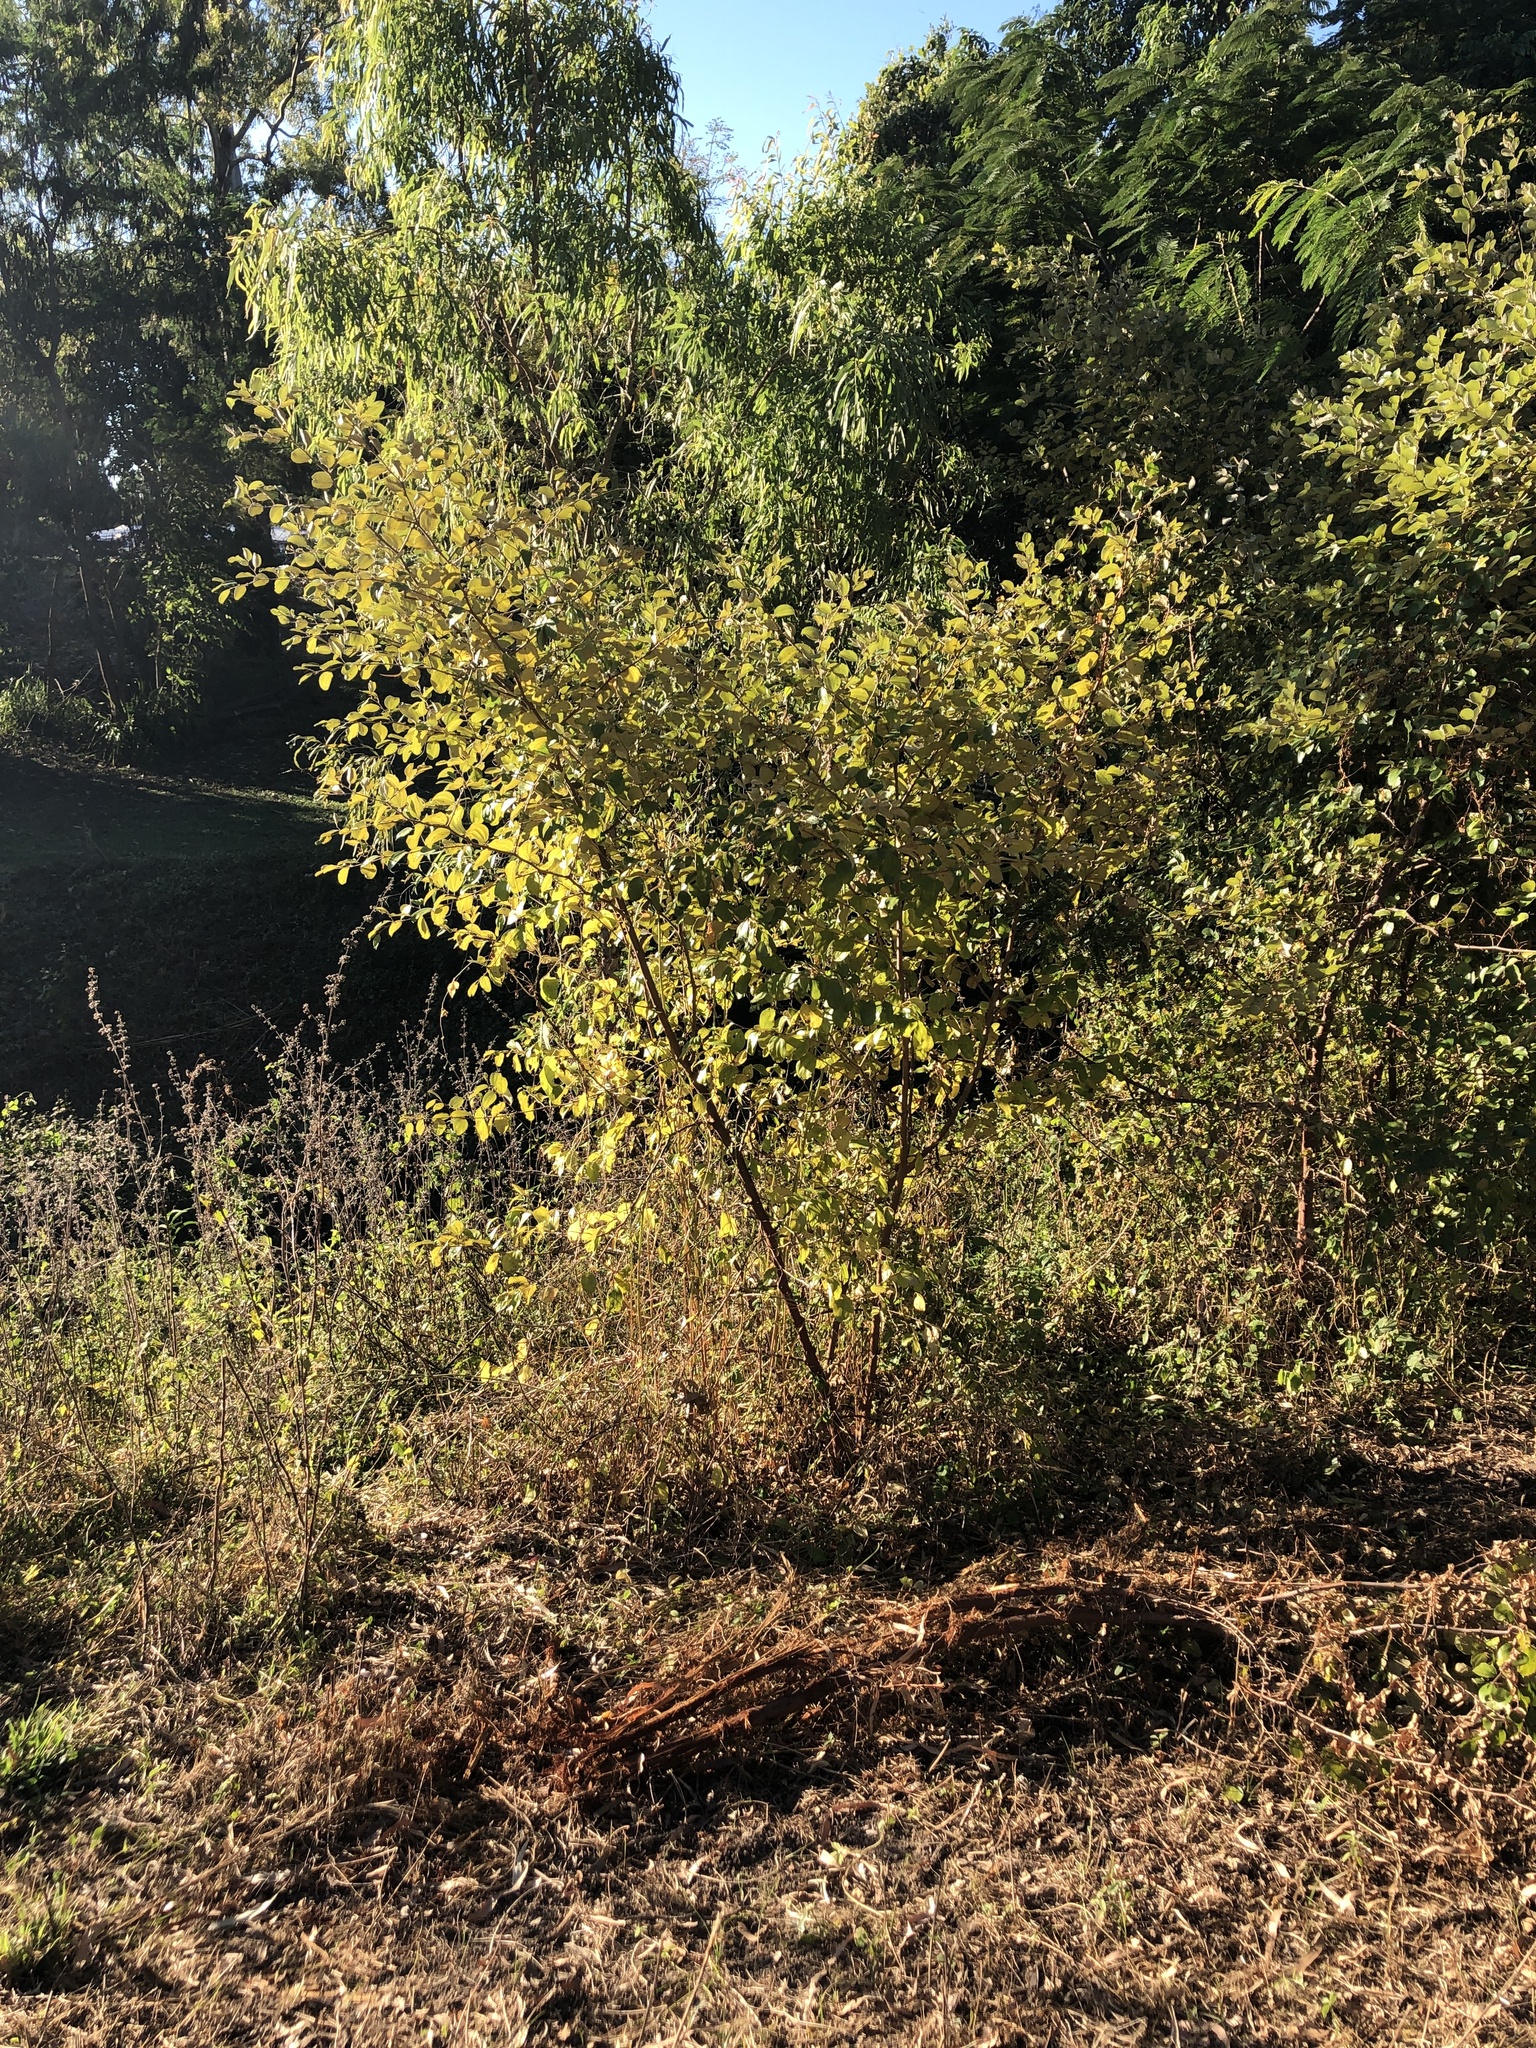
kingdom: Plantae
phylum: Tracheophyta
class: Magnoliopsida
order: Rosales
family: Rhamnaceae
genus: Ziziphus
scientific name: Ziziphus mauritiana
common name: Indian jujube
